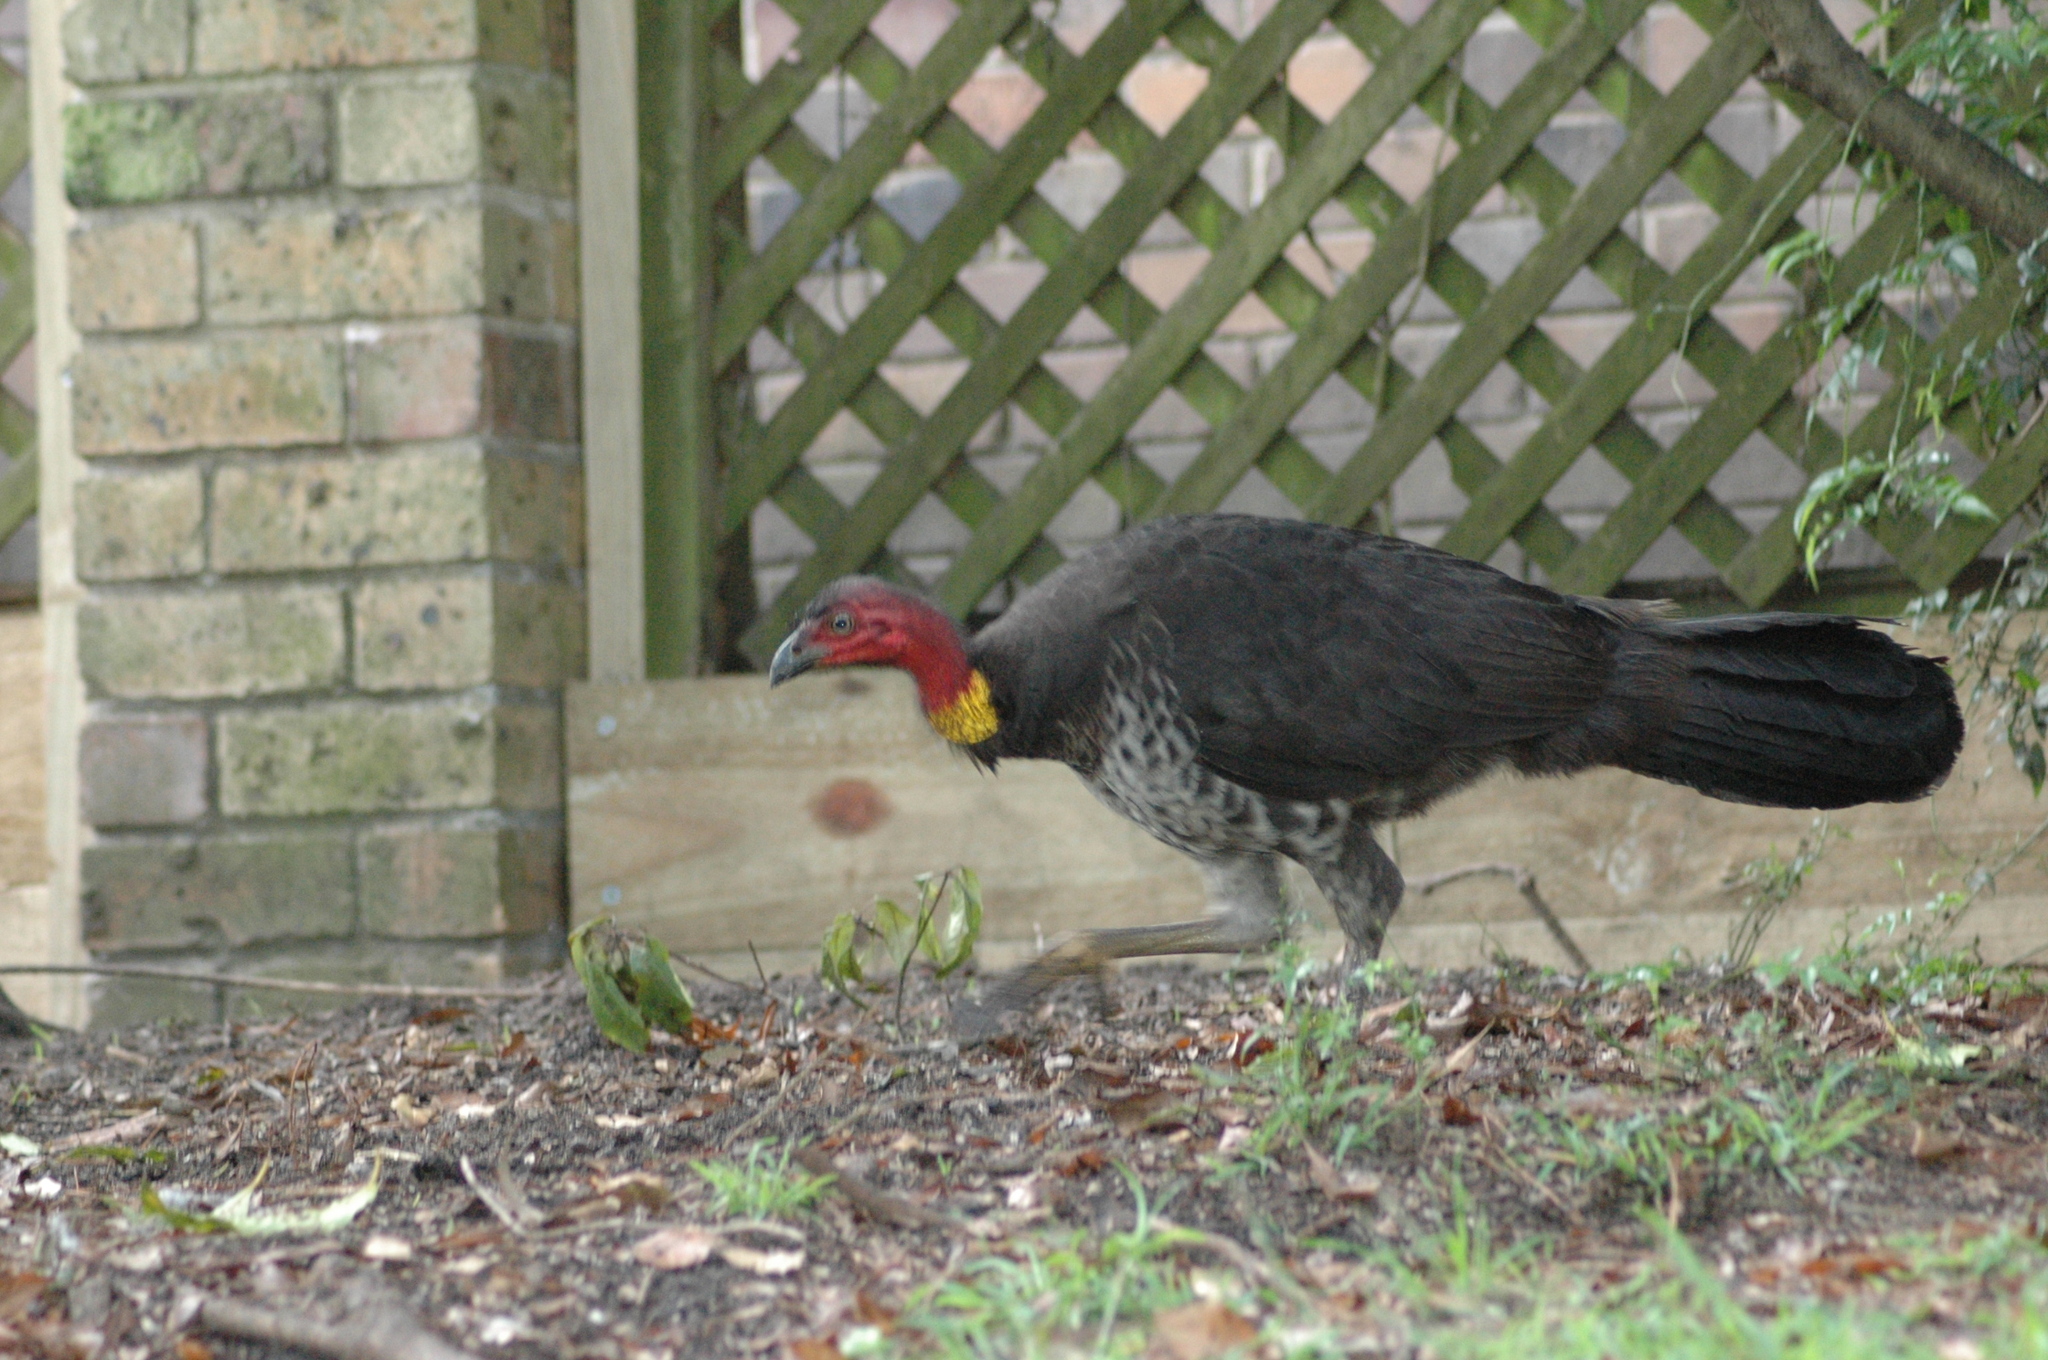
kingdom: Animalia
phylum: Chordata
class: Aves
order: Galliformes
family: Megapodiidae
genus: Alectura
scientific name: Alectura lathami
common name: Australian brushturkey
